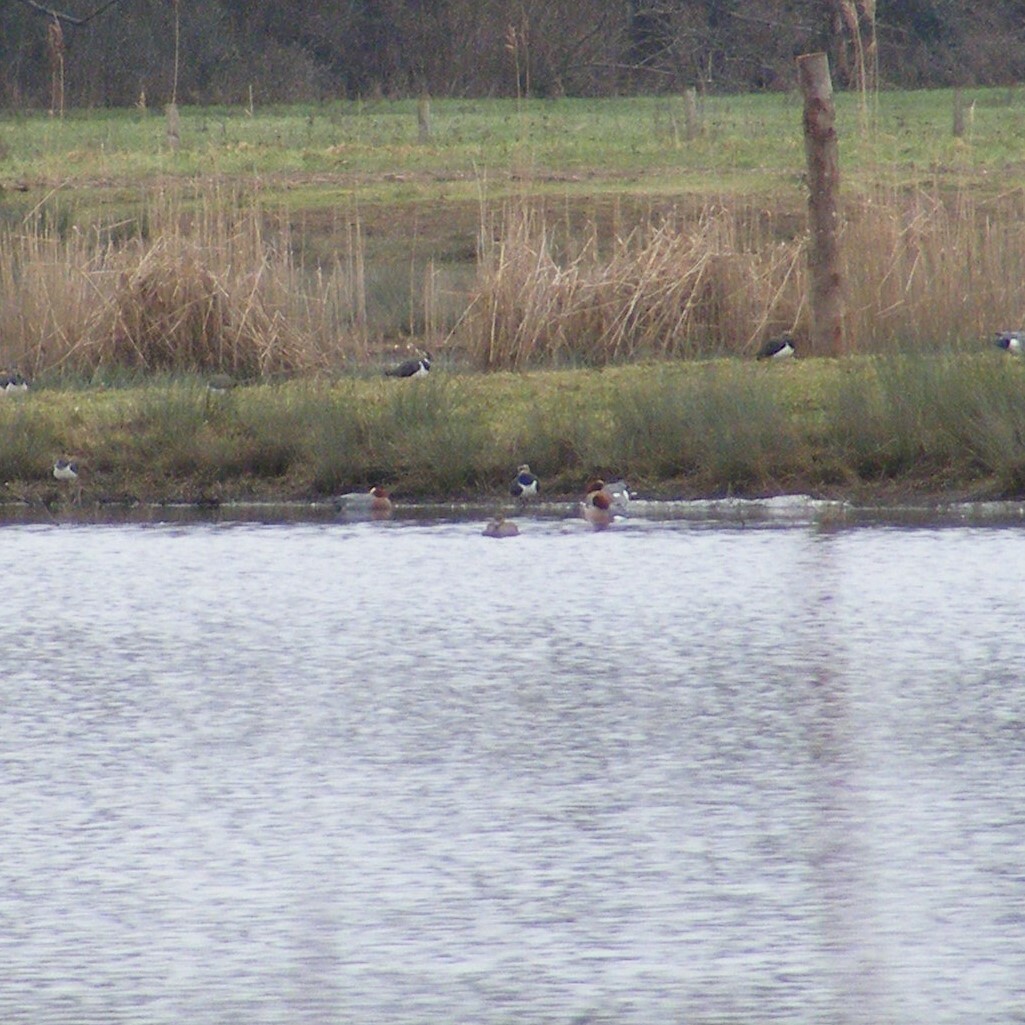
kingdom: Animalia
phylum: Chordata
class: Aves
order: Anseriformes
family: Anatidae
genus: Mareca
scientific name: Mareca penelope
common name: Eurasian wigeon
